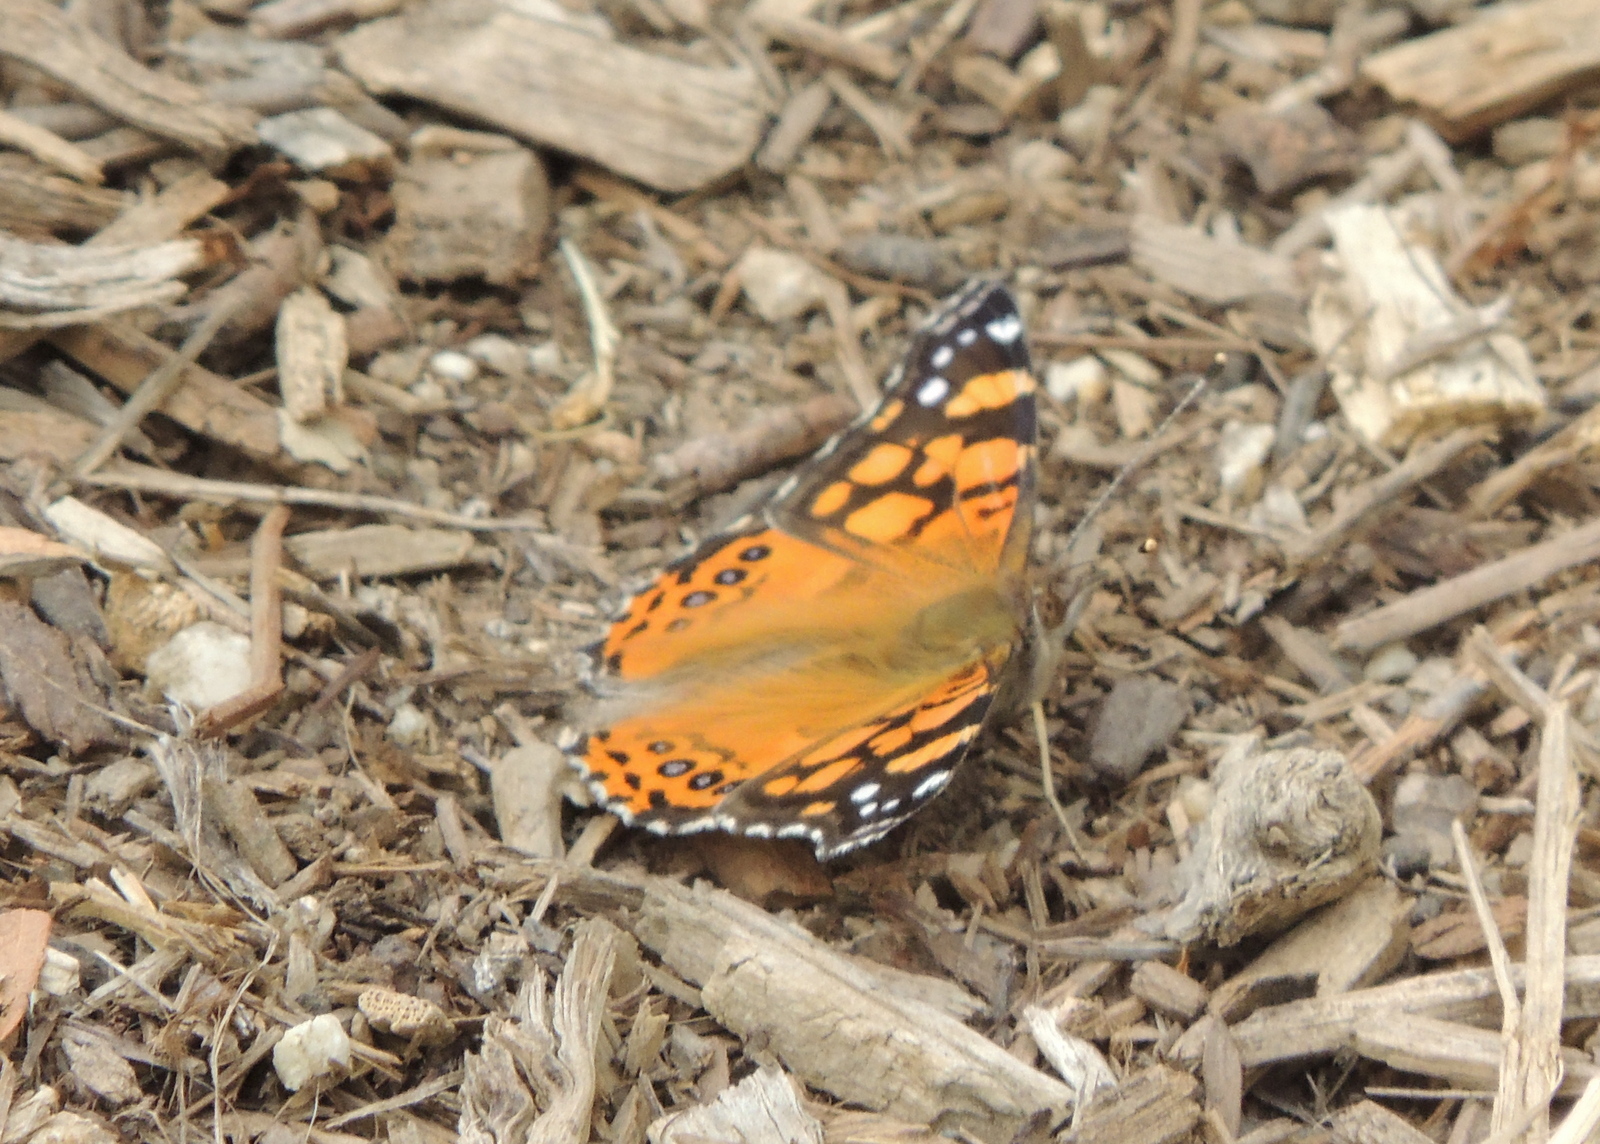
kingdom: Animalia
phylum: Arthropoda
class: Insecta
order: Lepidoptera
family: Nymphalidae
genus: Vanessa
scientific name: Vanessa annabella
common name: West coast lady
